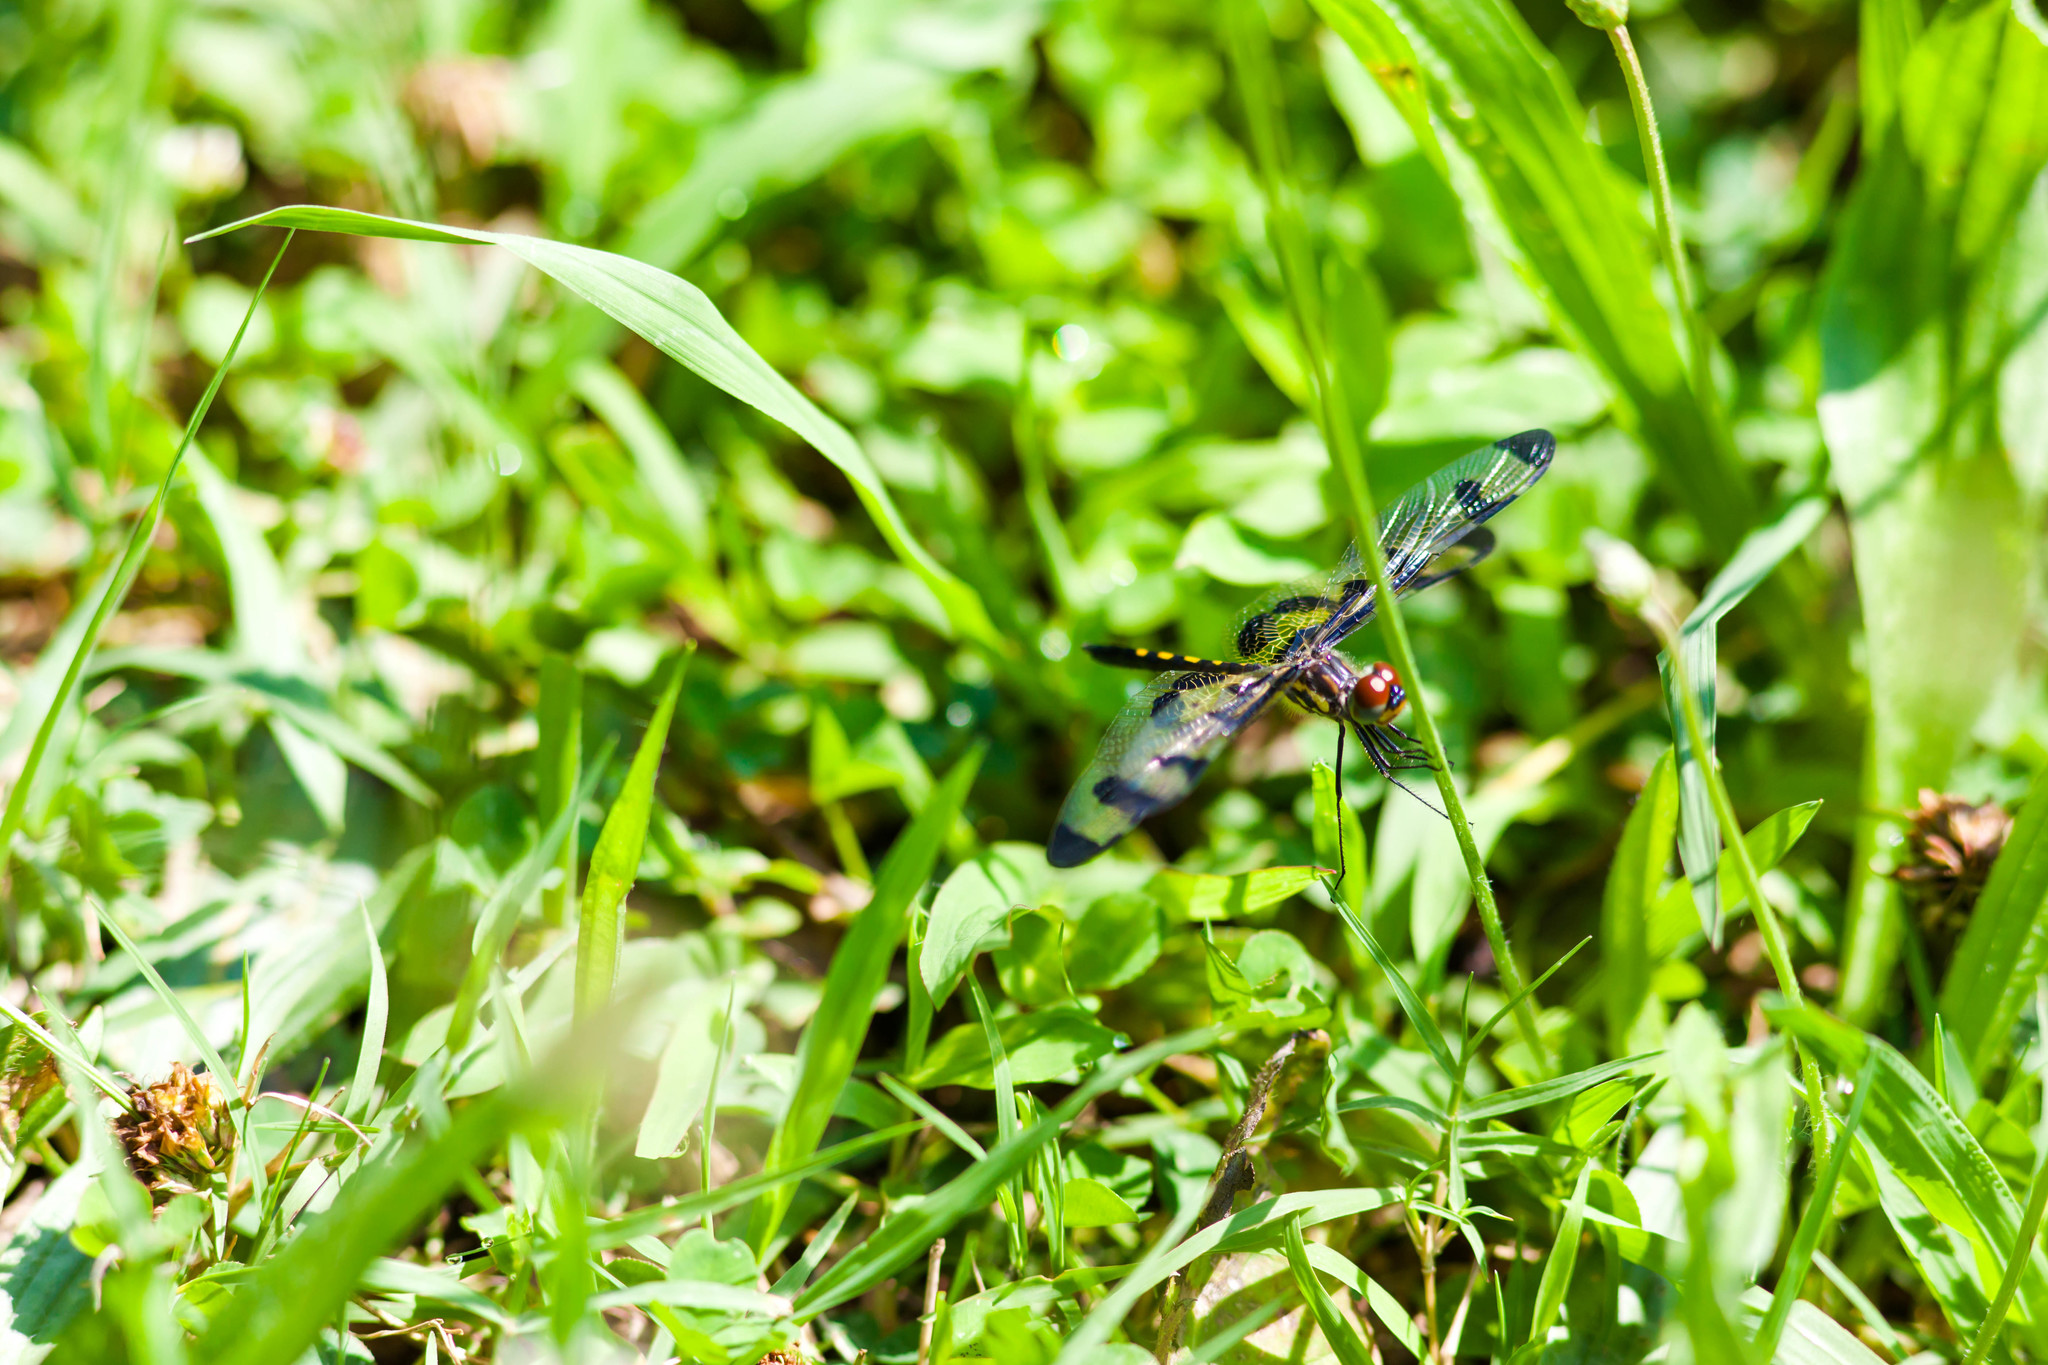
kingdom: Animalia
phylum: Arthropoda
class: Insecta
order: Odonata
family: Libellulidae
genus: Celithemis
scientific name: Celithemis fasciata
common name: Banded pennant
